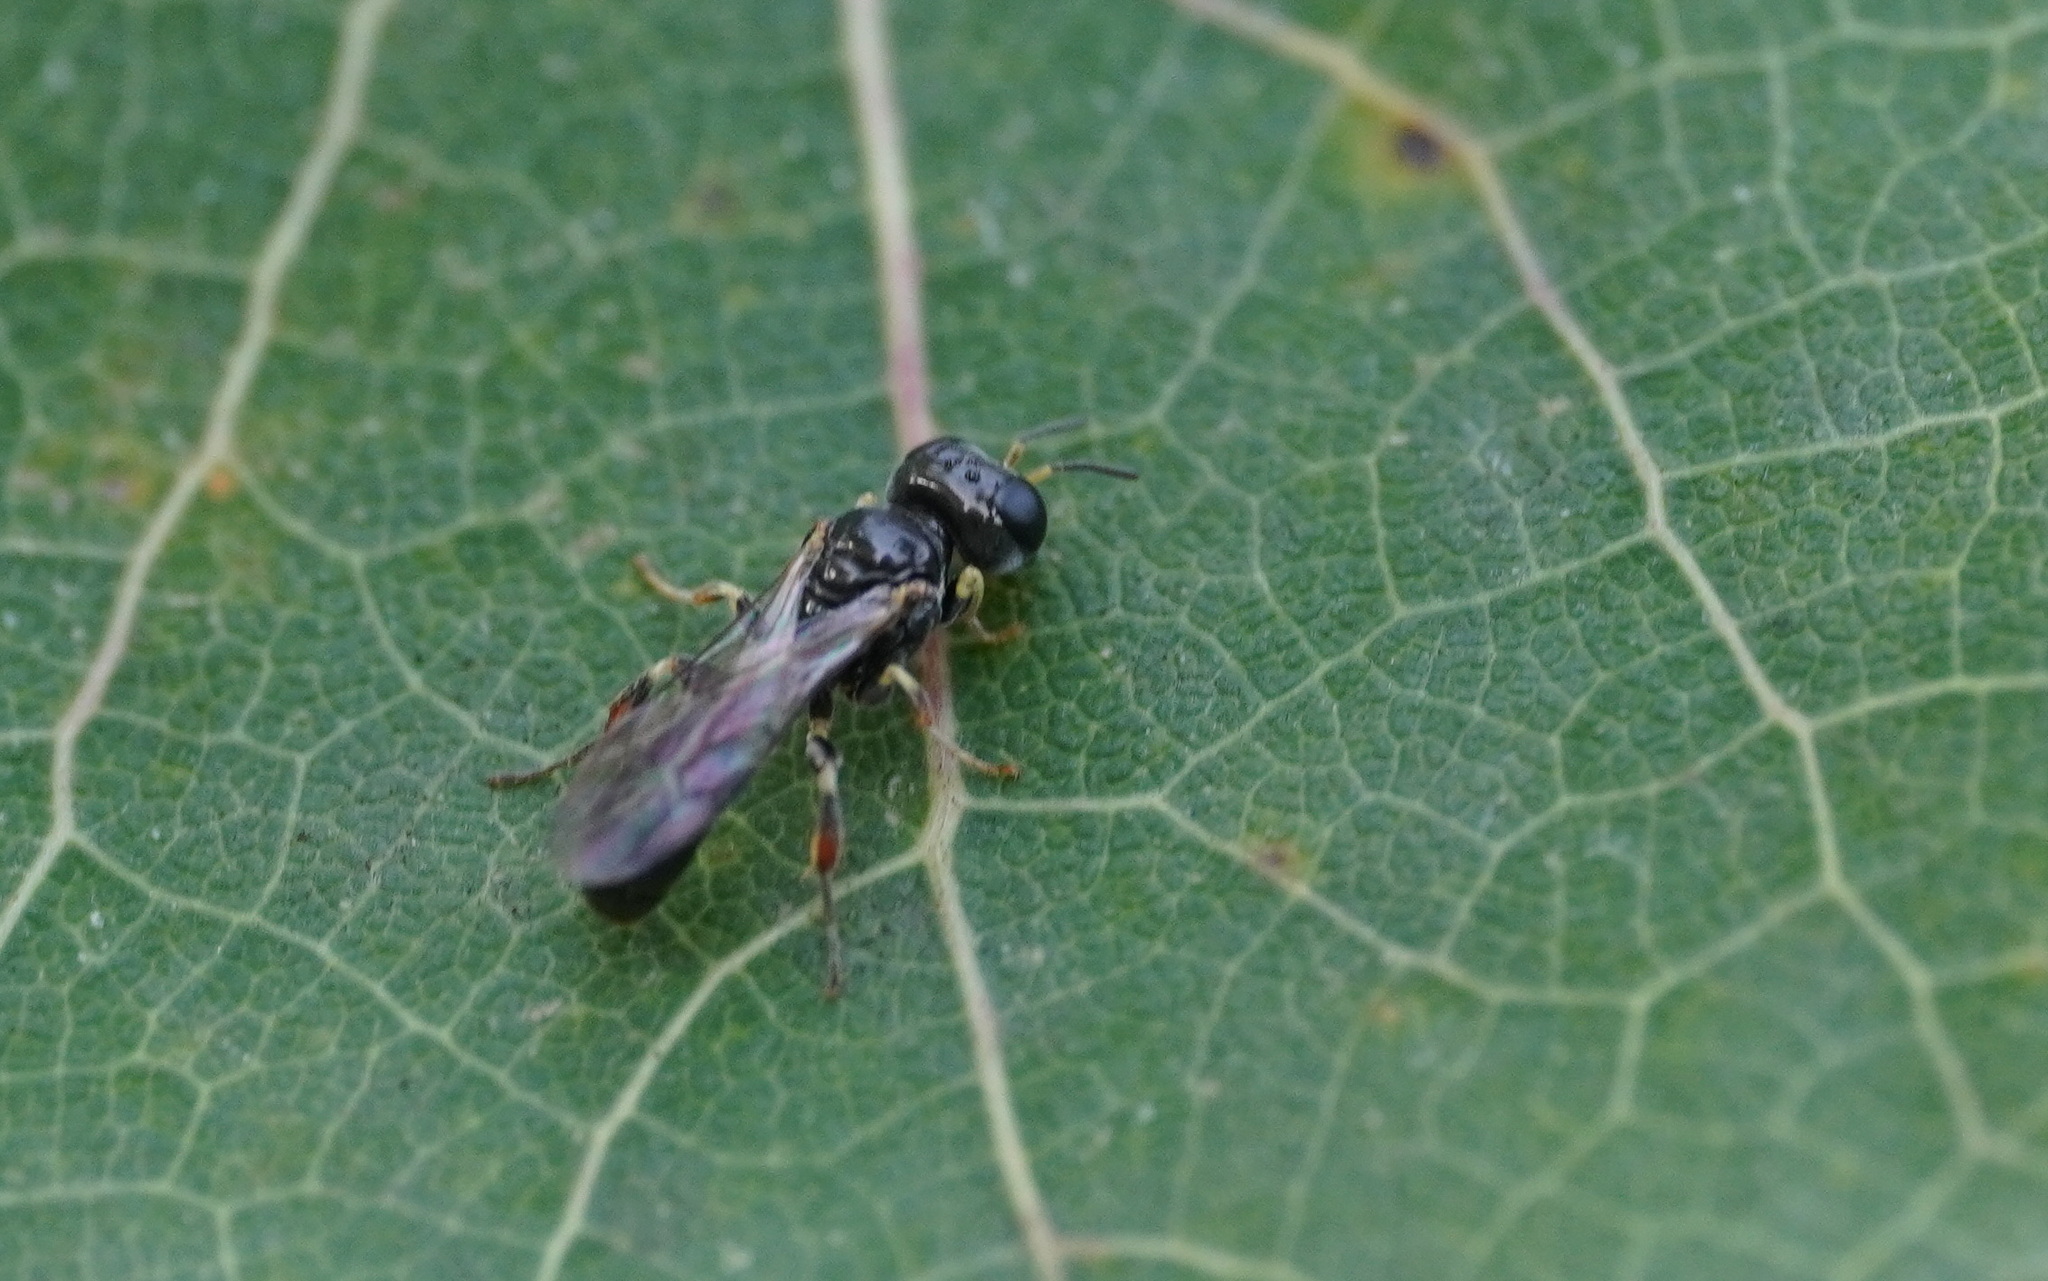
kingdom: Animalia
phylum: Arthropoda
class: Insecta
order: Hymenoptera
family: Crabronidae
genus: Rhopalum
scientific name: Rhopalum coarctatum
